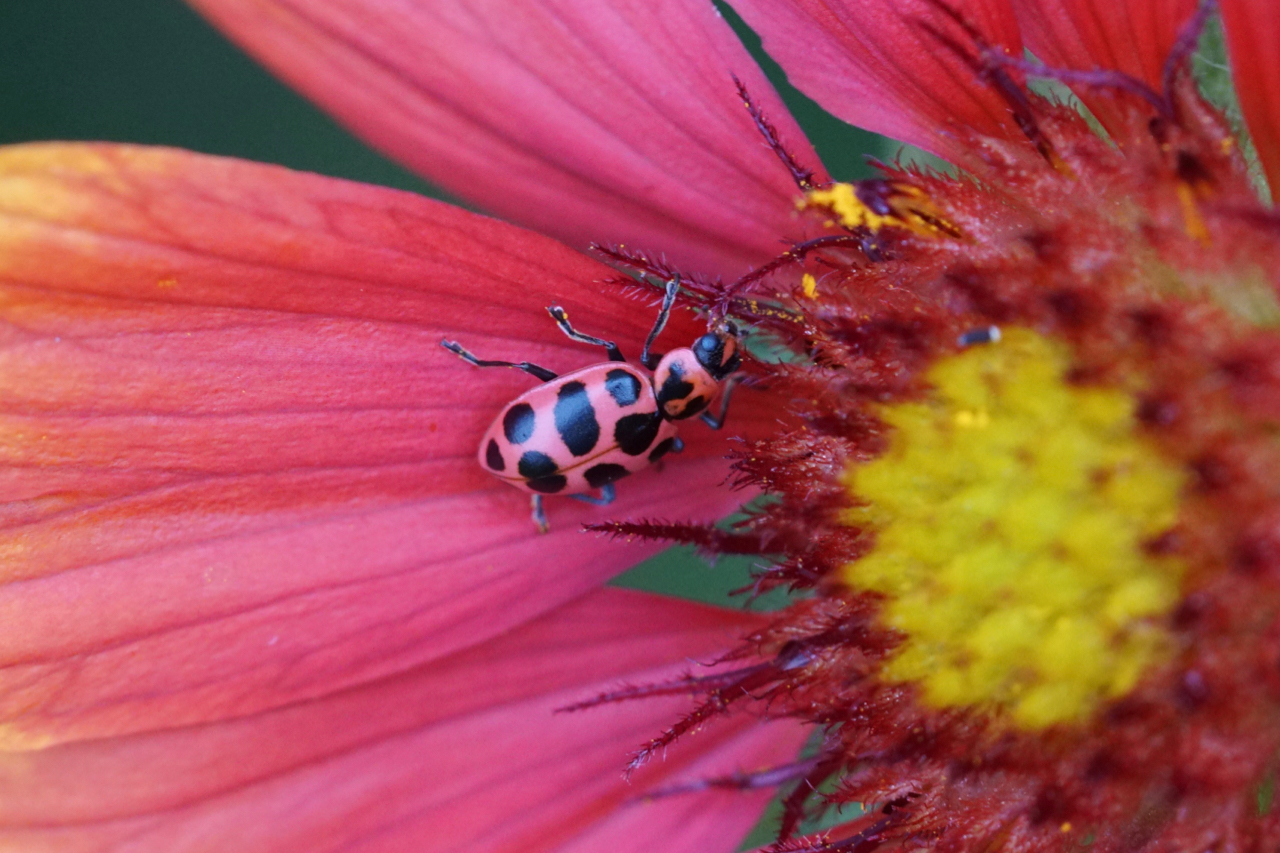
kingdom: Animalia
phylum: Arthropoda
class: Insecta
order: Coleoptera
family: Coccinellidae
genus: Coleomegilla
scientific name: Coleomegilla maculata
